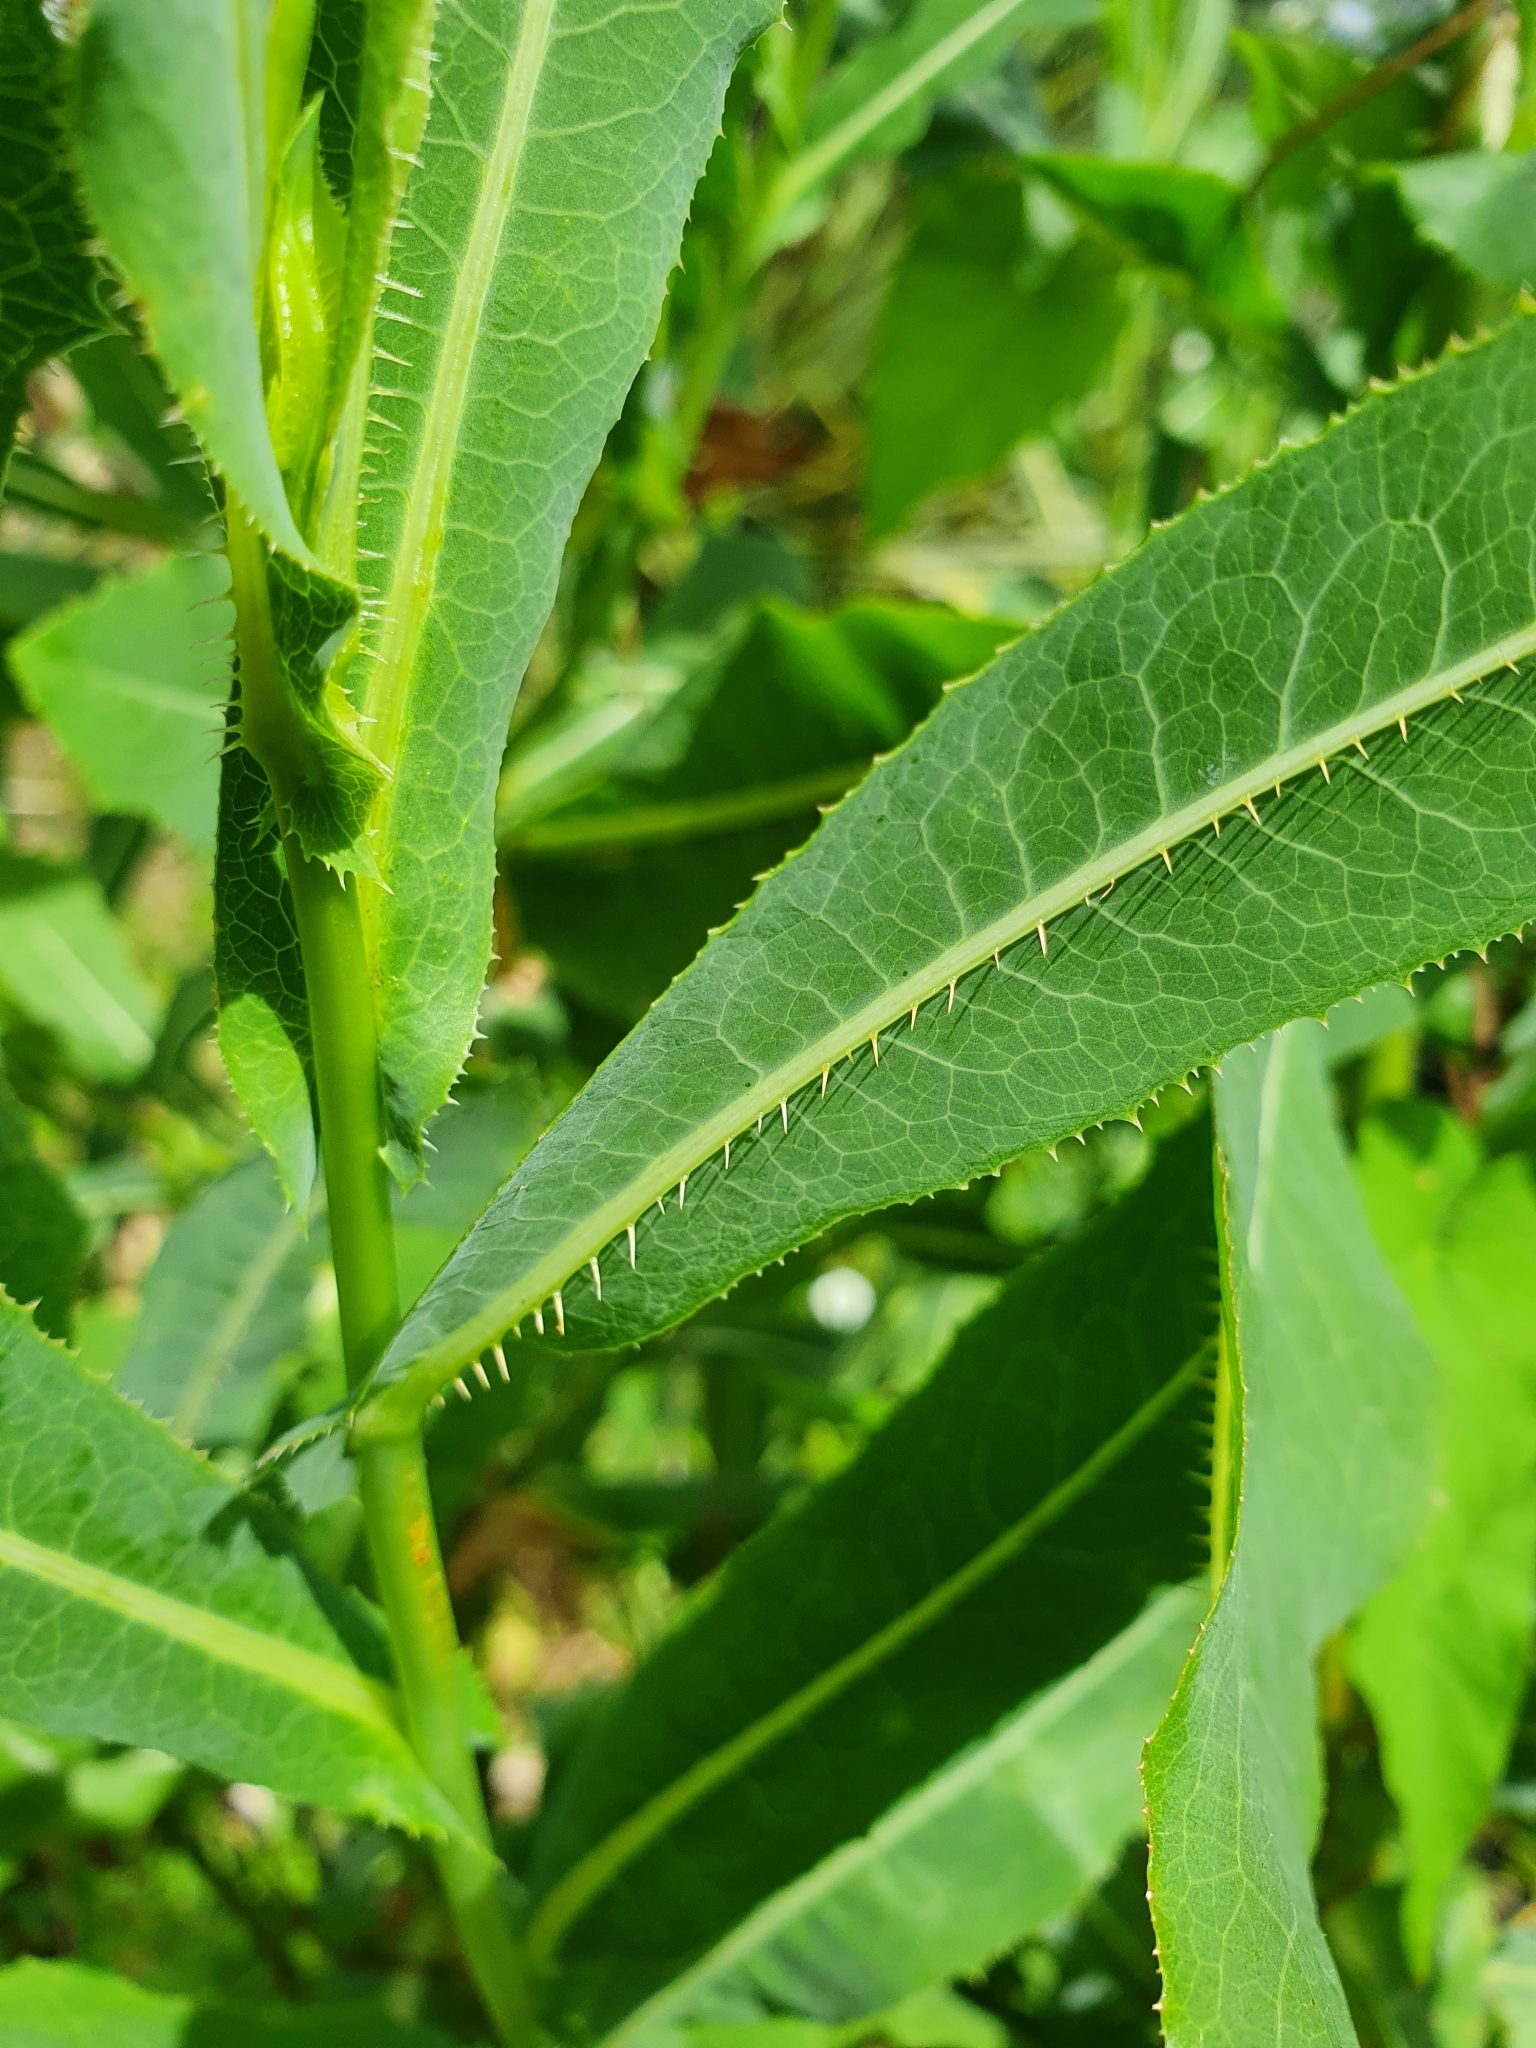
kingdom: Plantae
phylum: Tracheophyta
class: Magnoliopsida
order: Asterales
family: Asteraceae
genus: Lactuca
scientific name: Lactuca serriola
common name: Prickly lettuce
